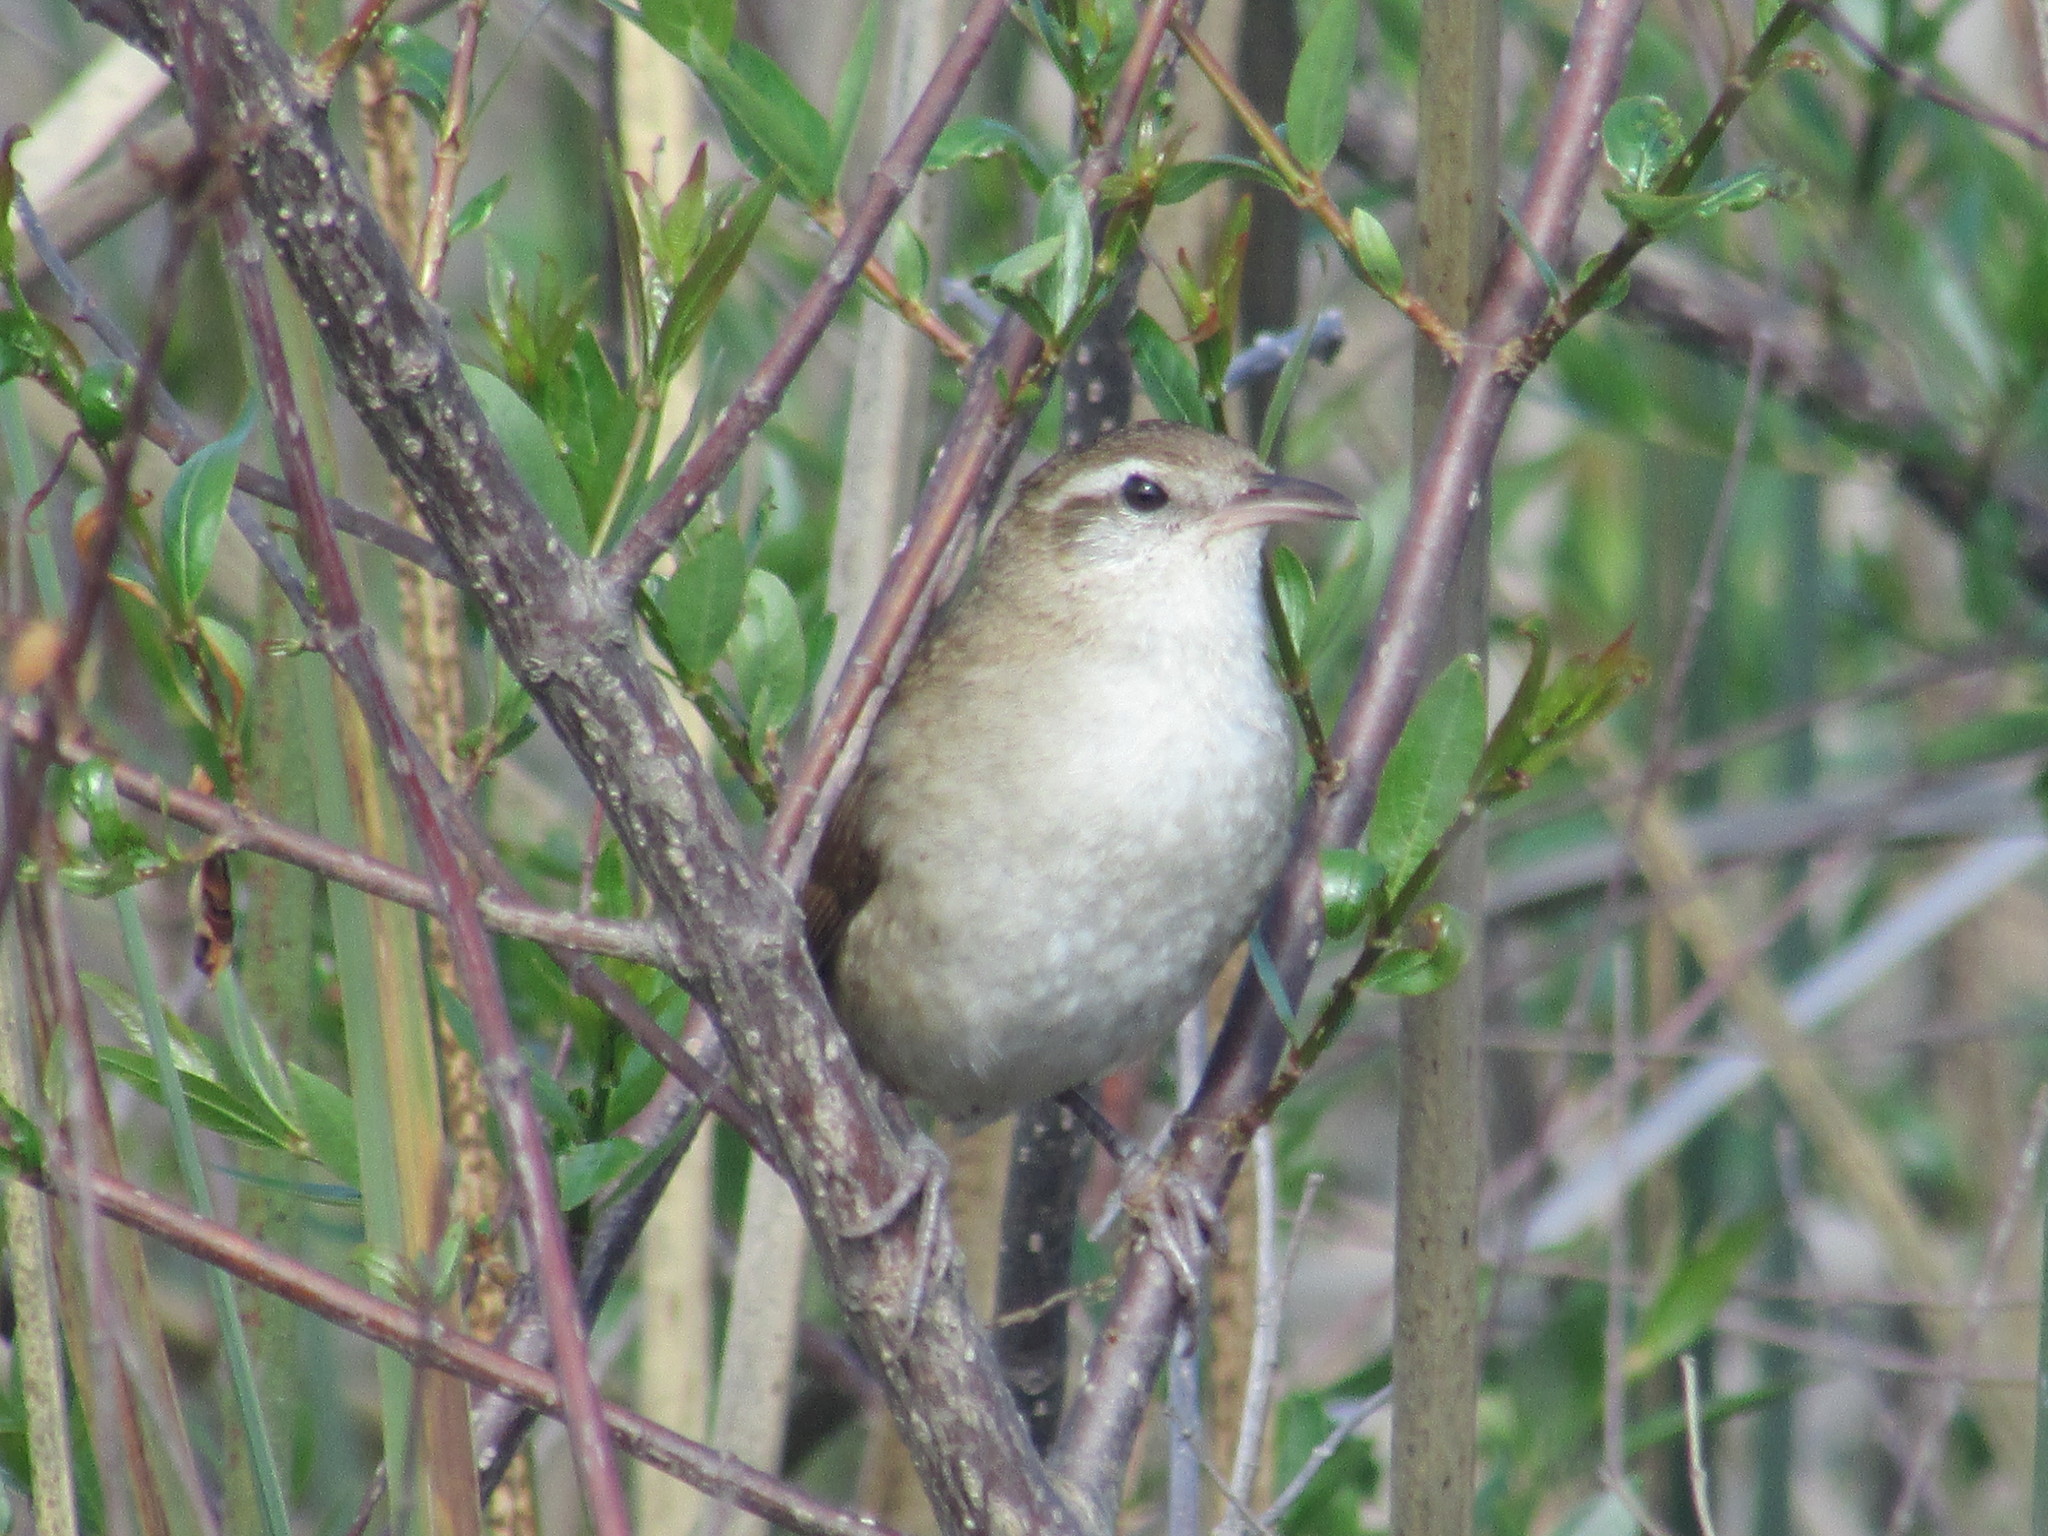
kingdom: Animalia
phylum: Chordata
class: Aves
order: Passeriformes
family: Furnariidae
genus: Limnornis
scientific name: Limnornis curvirostris
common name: Curve-billed reedhaunter
